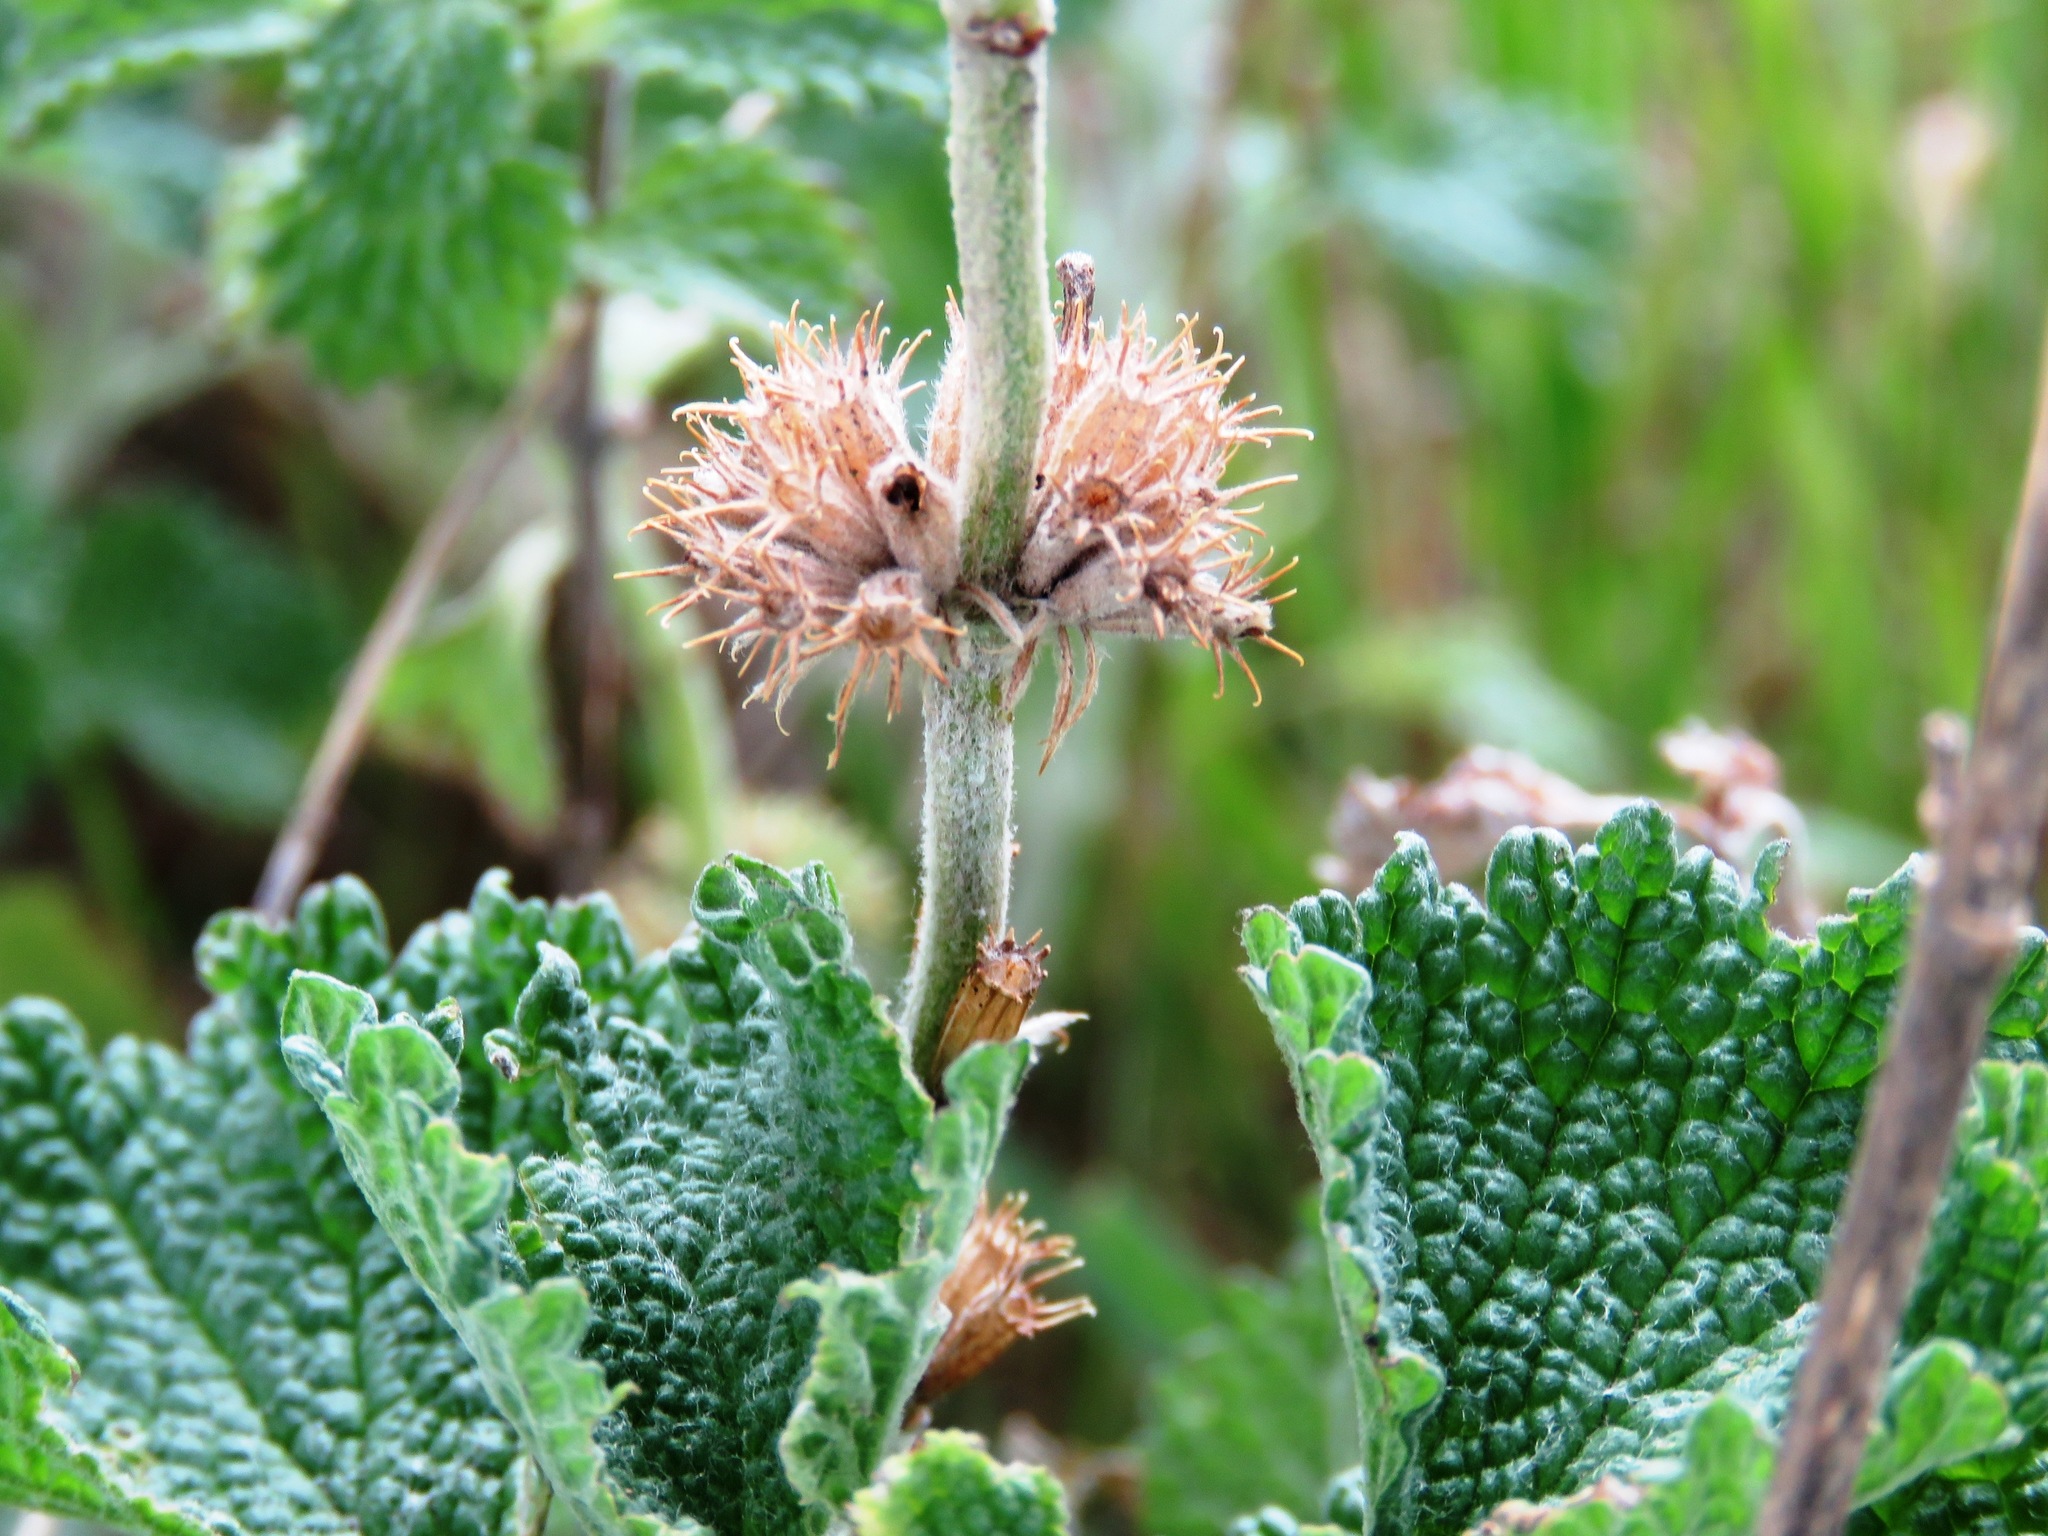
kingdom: Plantae
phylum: Tracheophyta
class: Magnoliopsida
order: Lamiales
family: Lamiaceae
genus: Marrubium
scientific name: Marrubium vulgare
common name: Horehound
